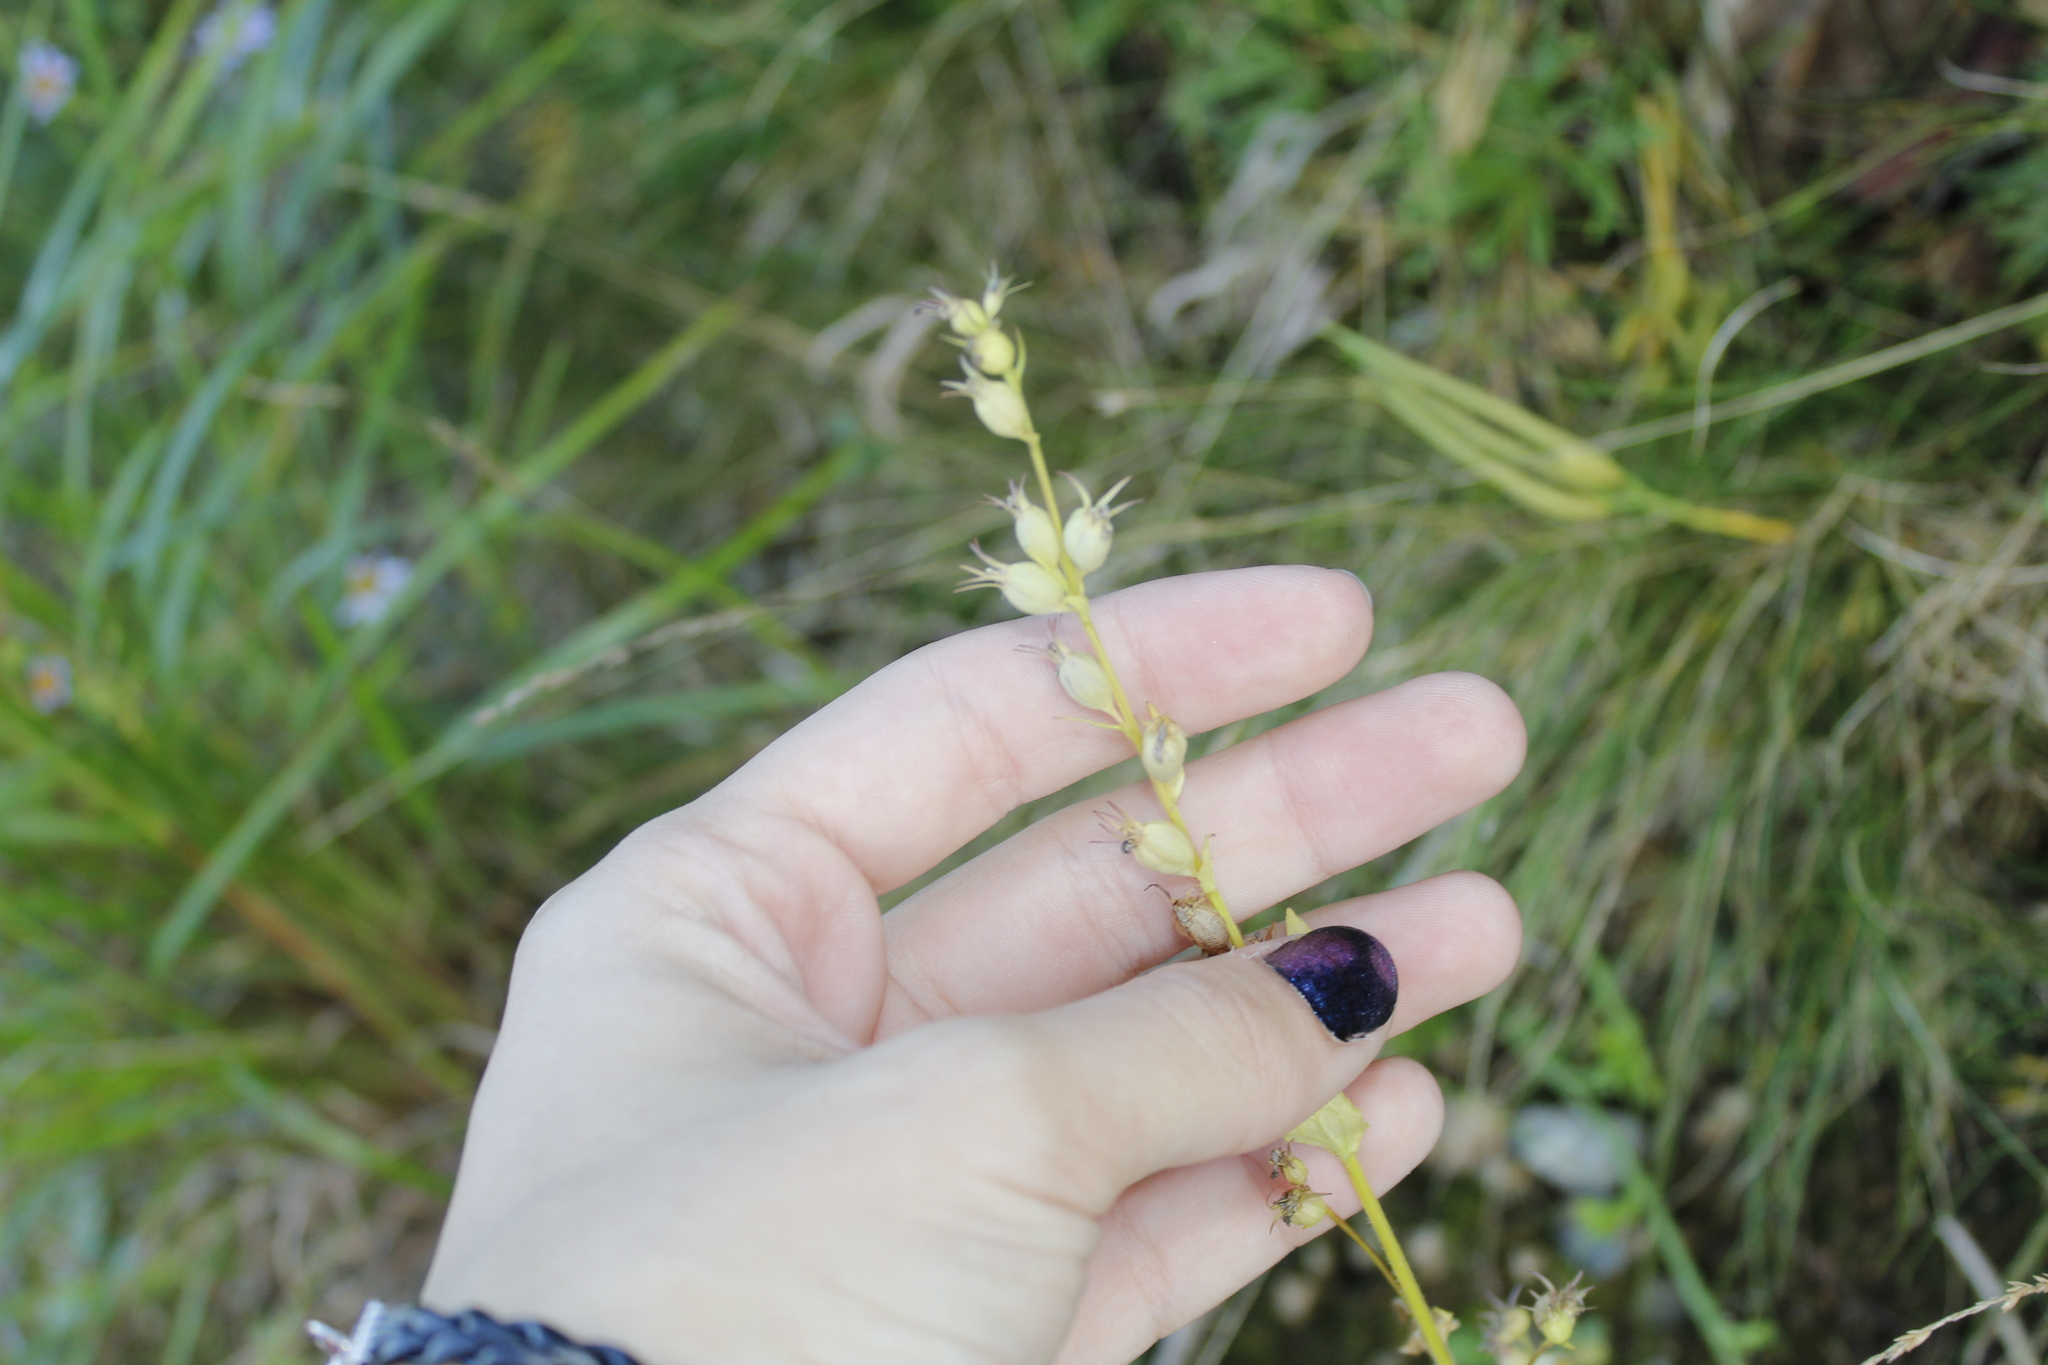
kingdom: Plantae
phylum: Tracheophyta
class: Magnoliopsida
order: Asterales
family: Campanulaceae
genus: Lobelia
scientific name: Lobelia inflata
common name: Indian tobacco
